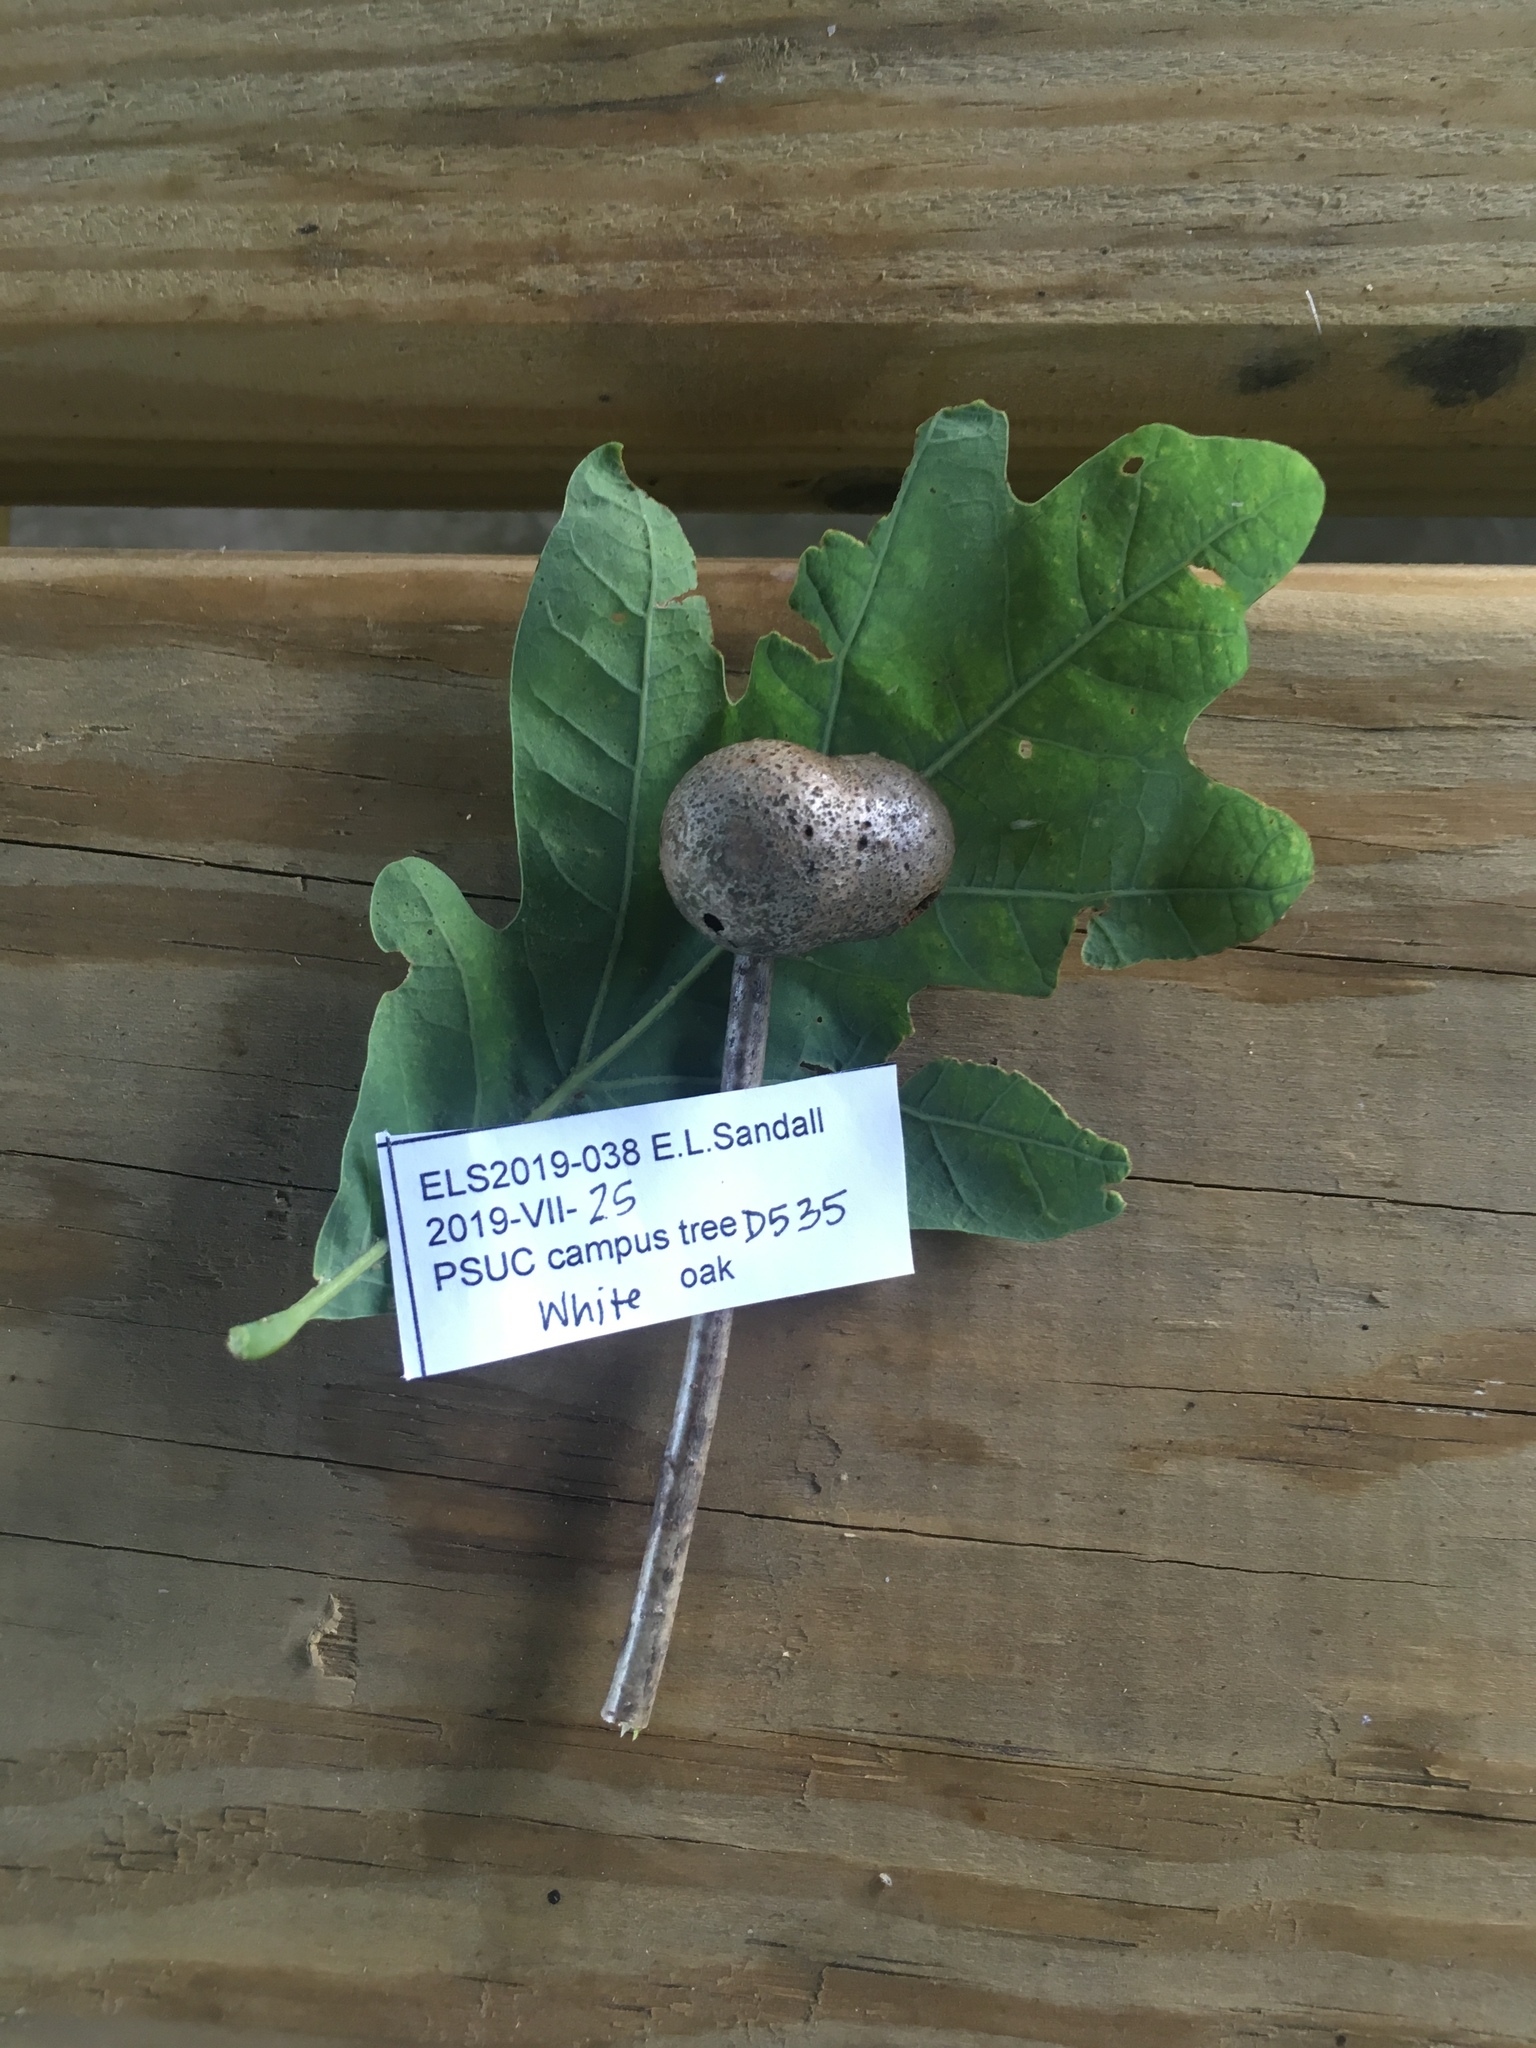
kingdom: Animalia
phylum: Arthropoda
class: Insecta
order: Hymenoptera
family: Cynipidae
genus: Disholcaspis
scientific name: Disholcaspis quercusglobulus
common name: Round bullet gall wasp
